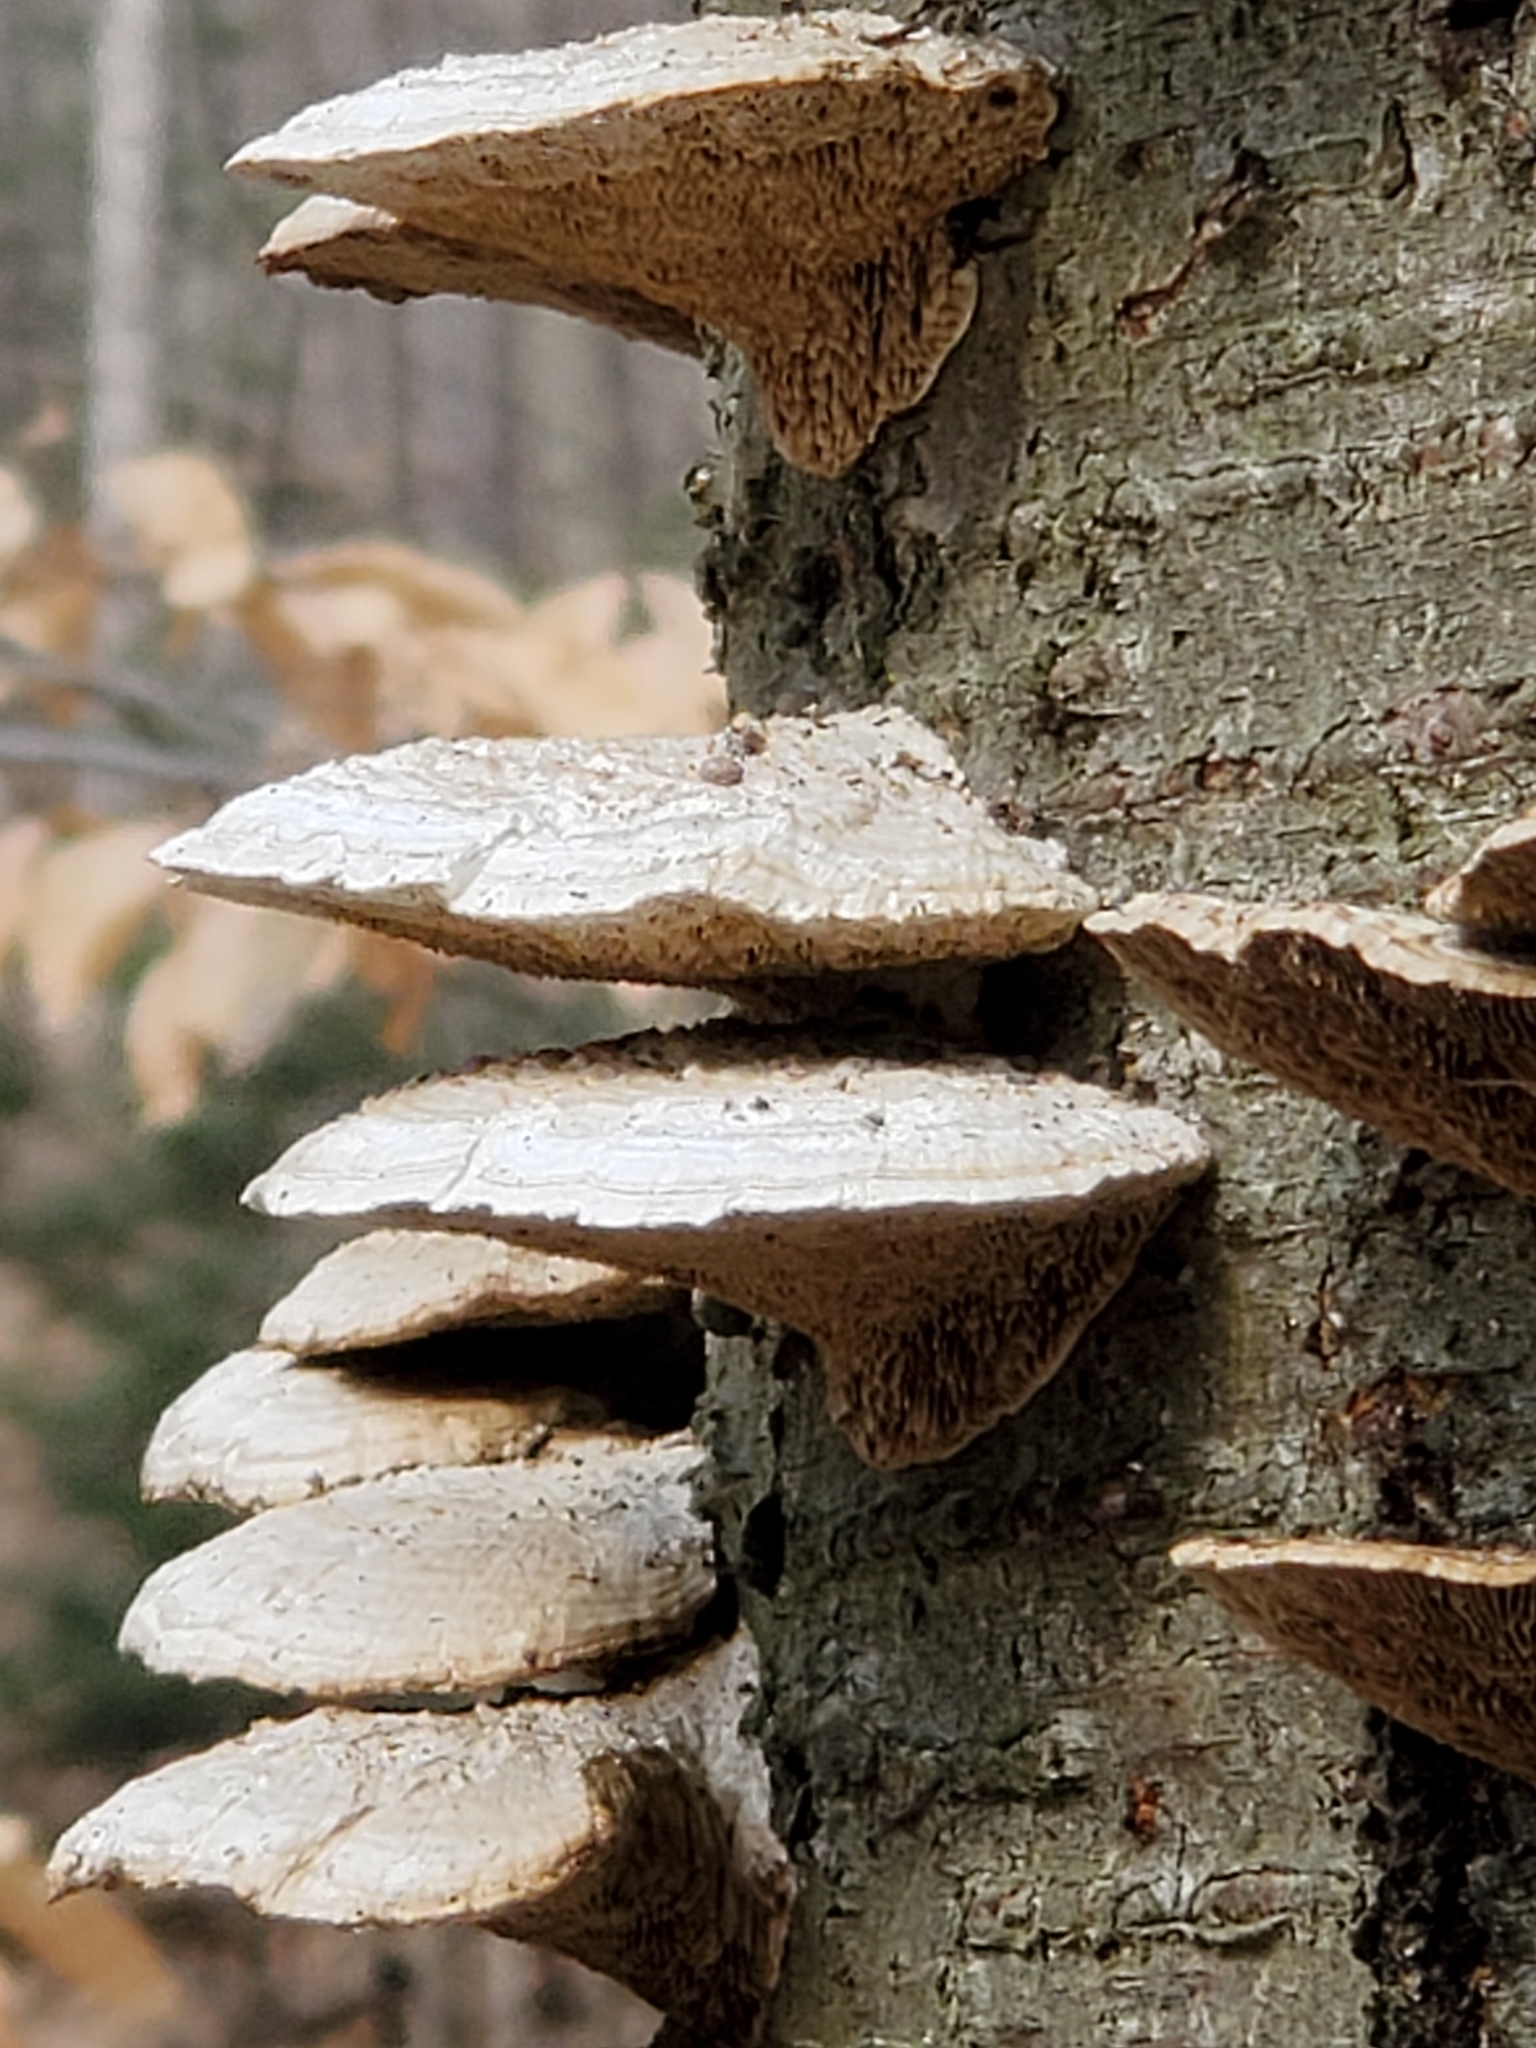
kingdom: Fungi
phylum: Basidiomycota
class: Agaricomycetes
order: Polyporales
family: Polyporaceae
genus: Daedaleopsis
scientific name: Daedaleopsis confragosa
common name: Blushing bracket
